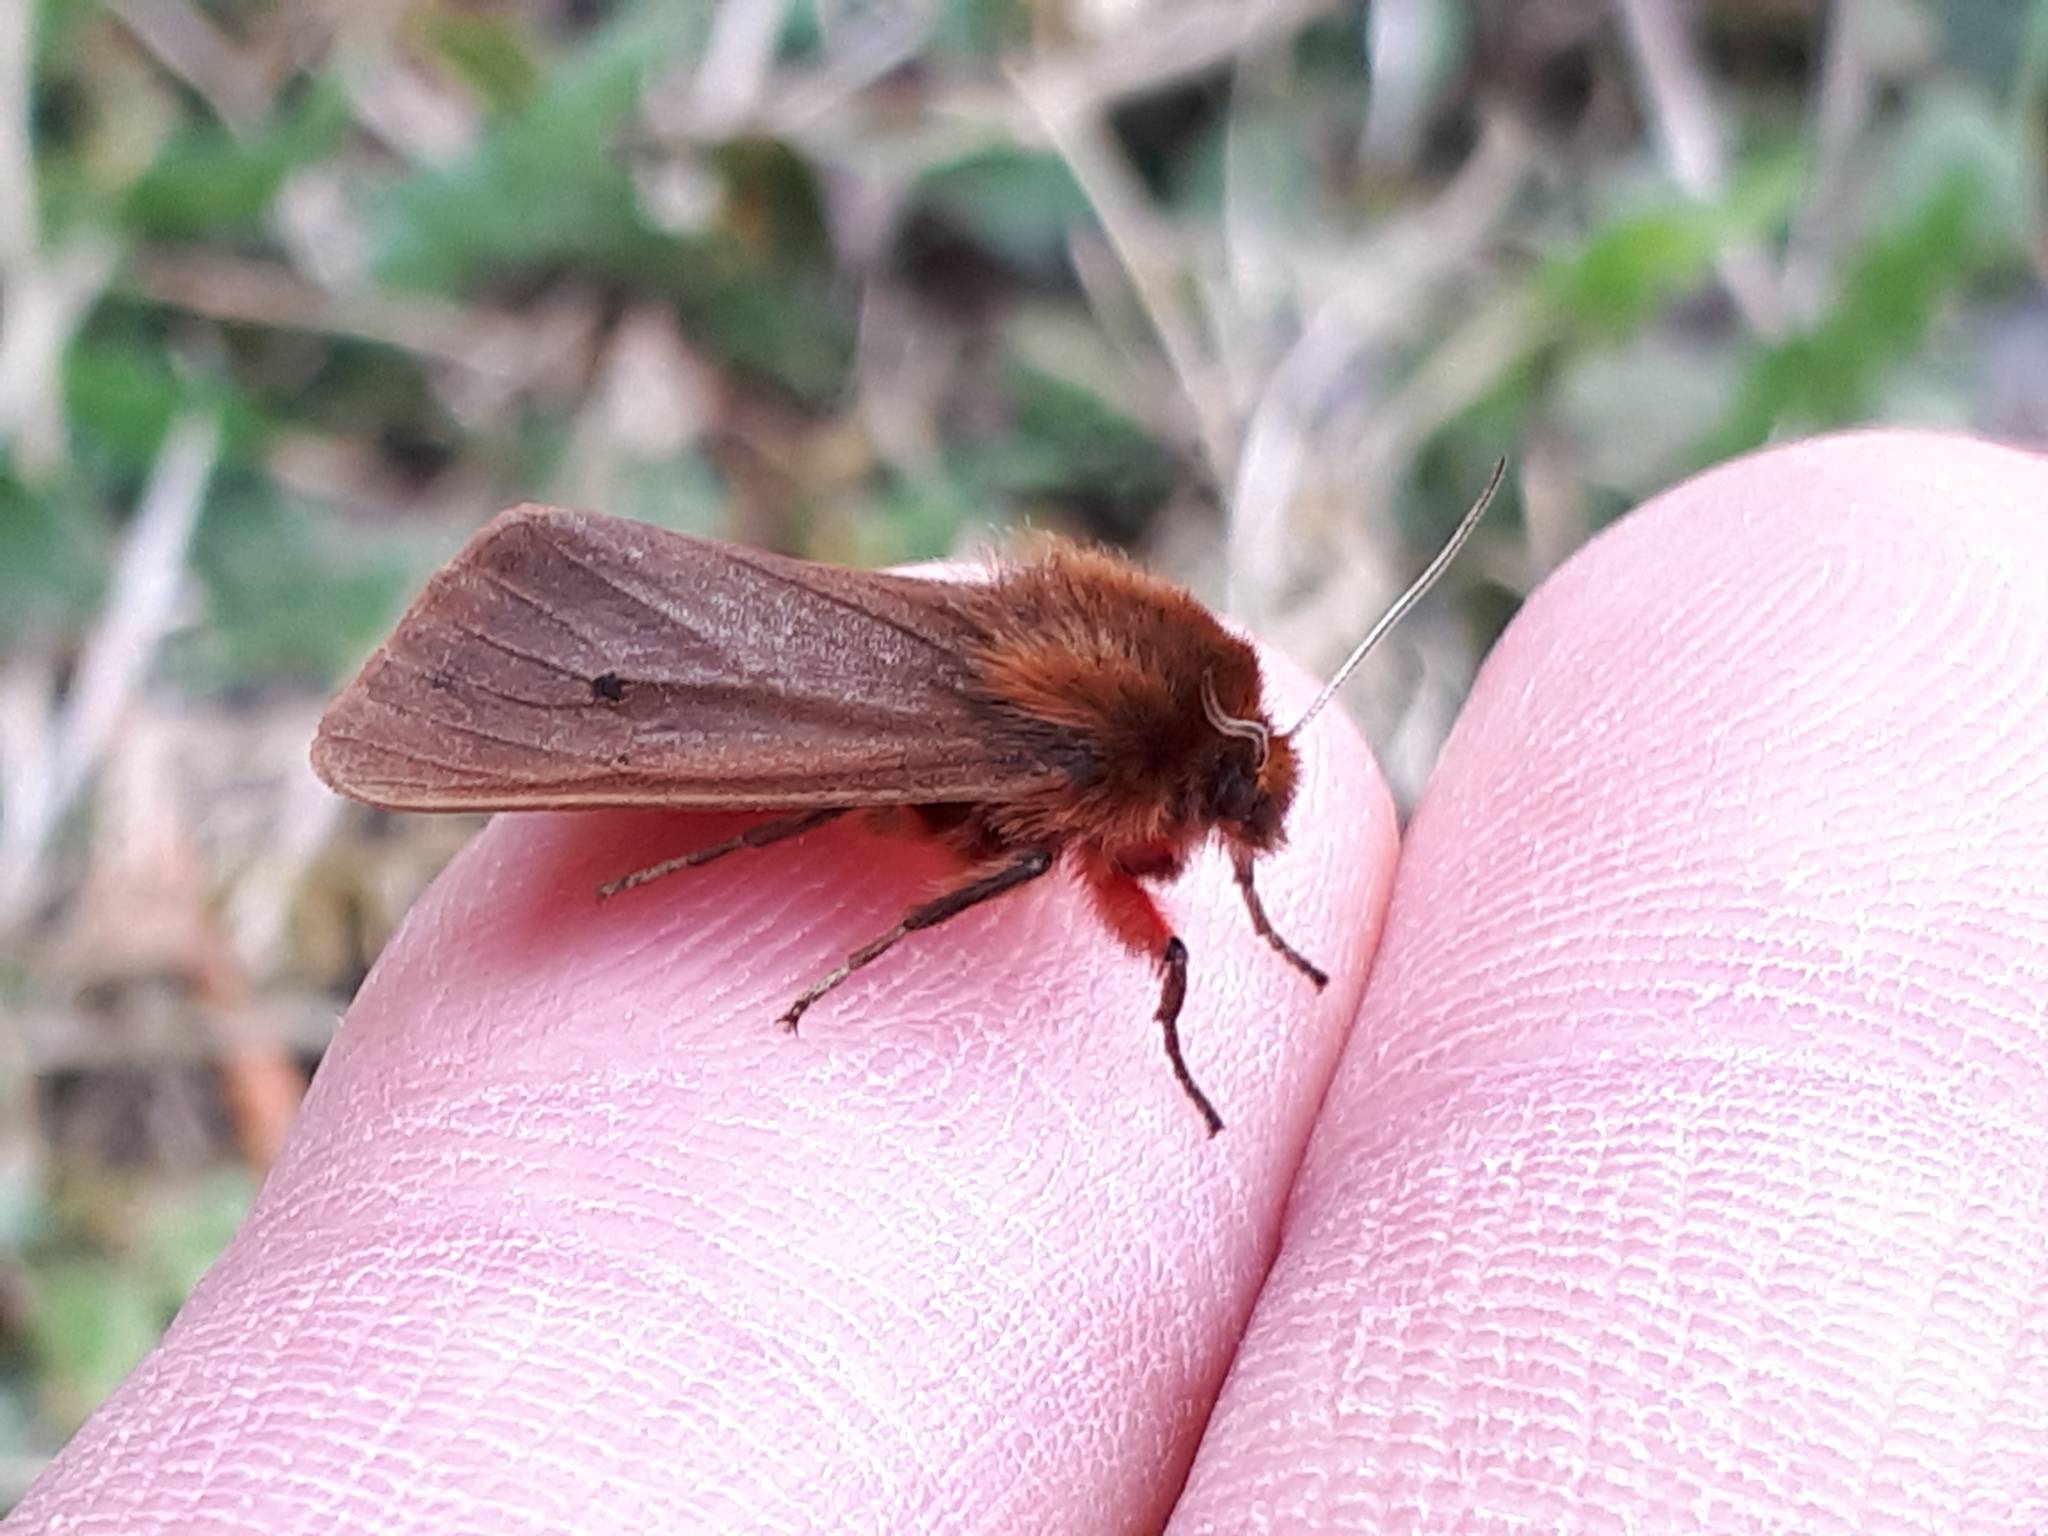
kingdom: Animalia
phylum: Arthropoda
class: Insecta
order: Lepidoptera
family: Erebidae
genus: Phragmatobia
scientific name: Phragmatobia fuliginosa
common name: Ruby tiger
